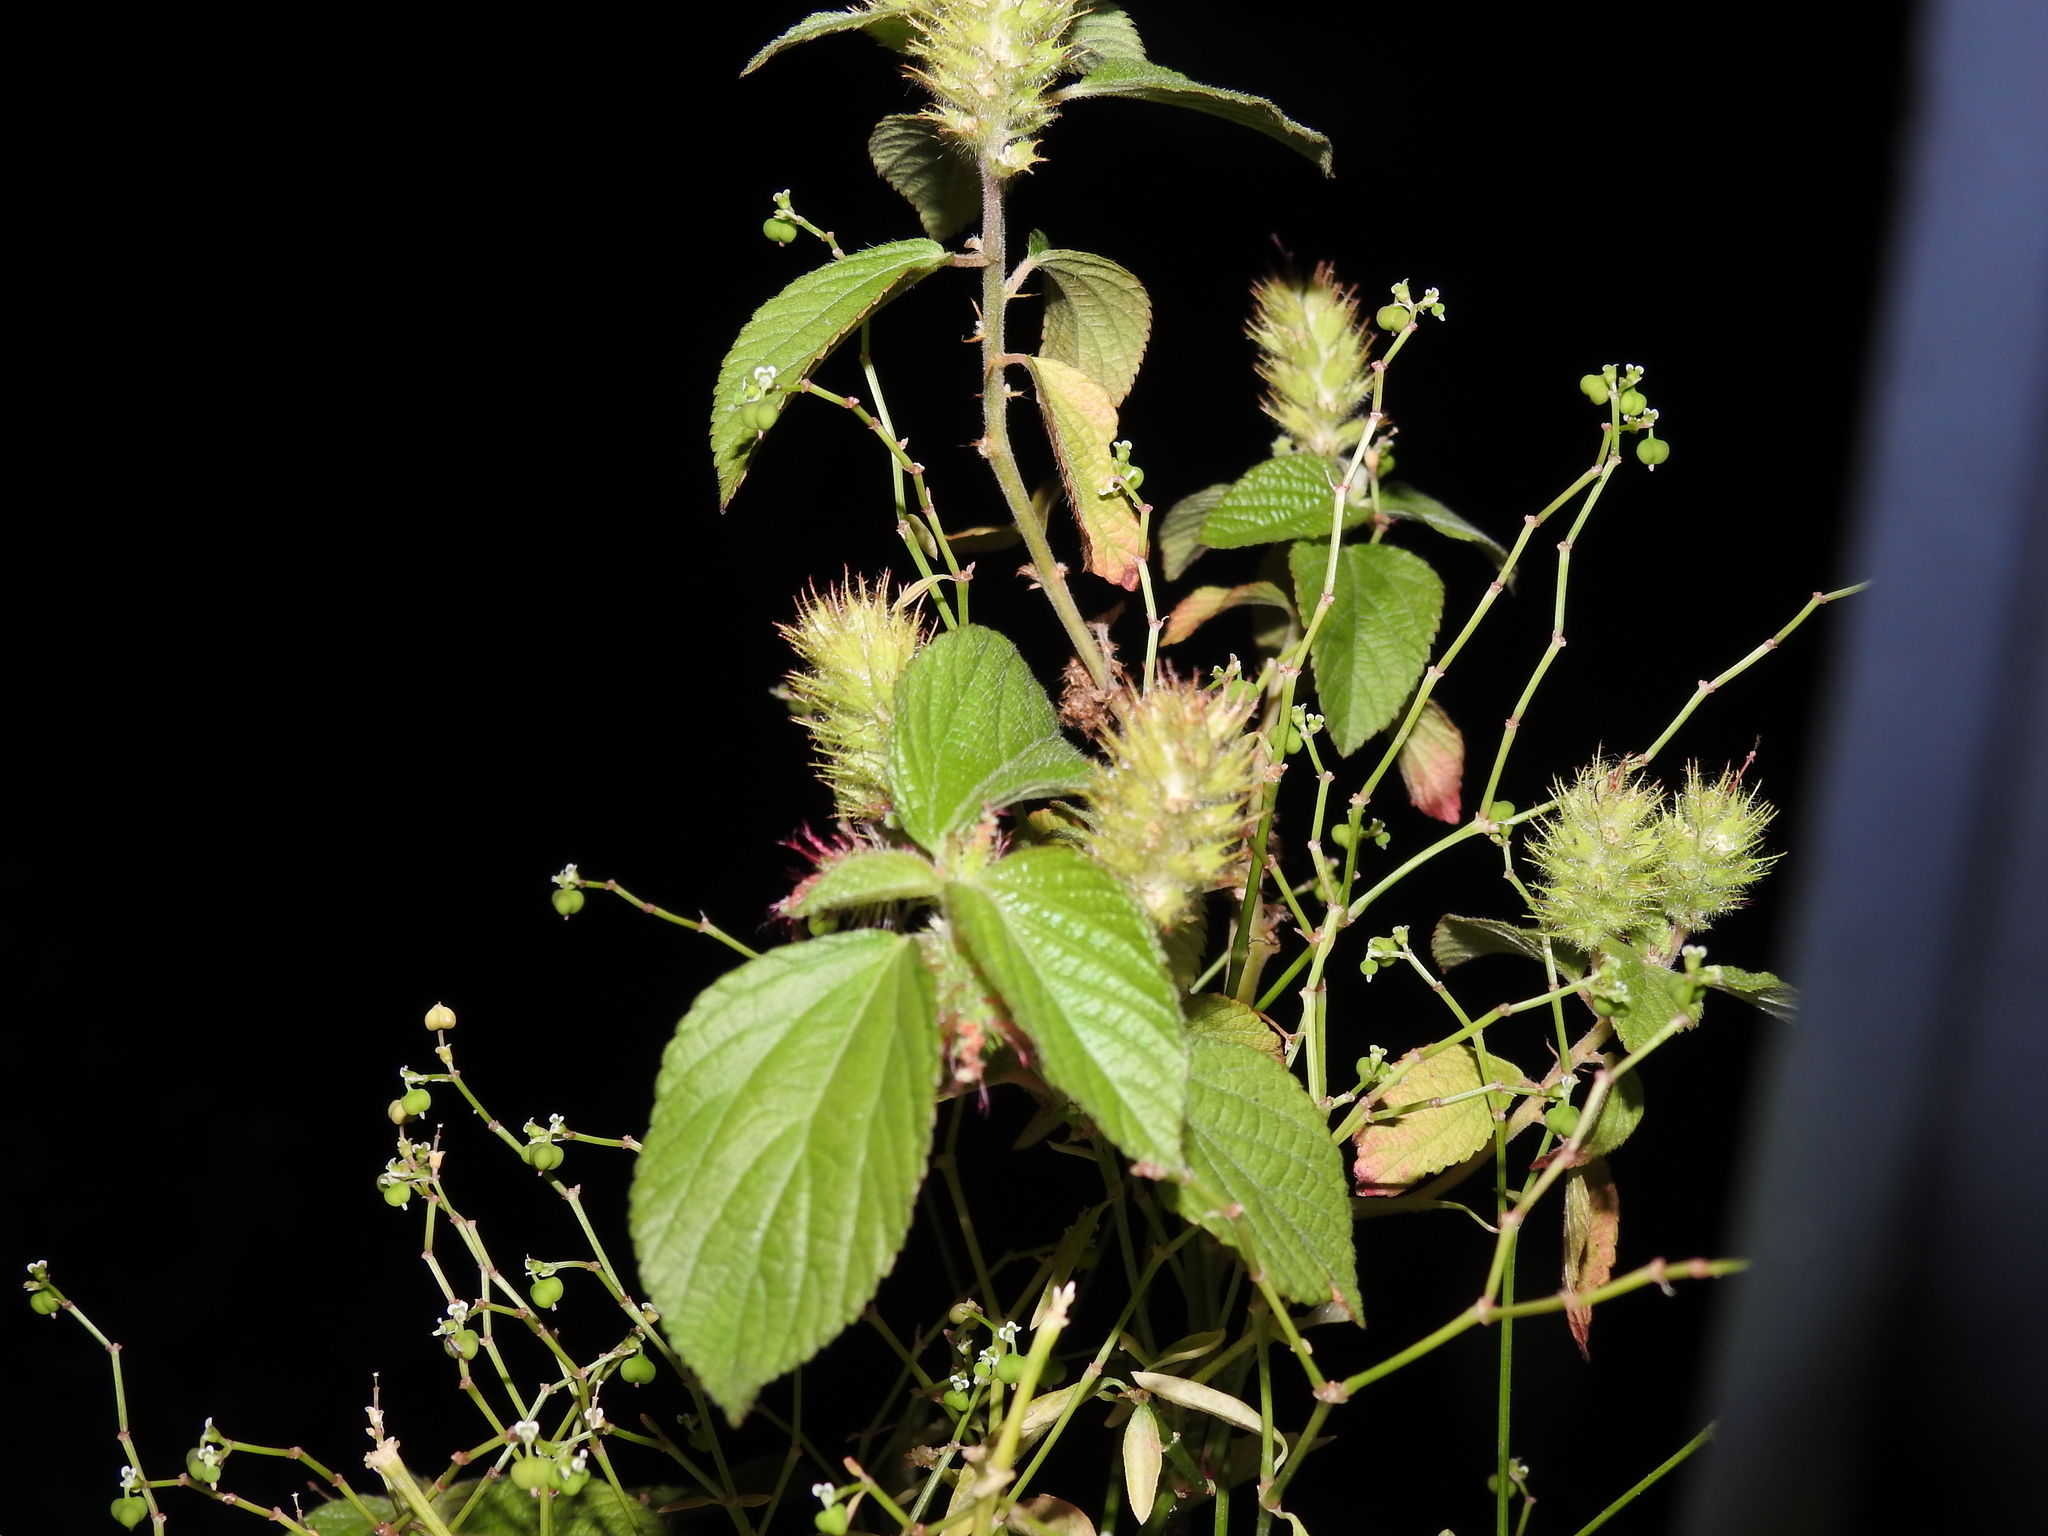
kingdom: Plantae
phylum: Tracheophyta
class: Magnoliopsida
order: Malpighiales
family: Euphorbiaceae
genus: Acalypha
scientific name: Acalypha arvensis
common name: Field copperleaf
